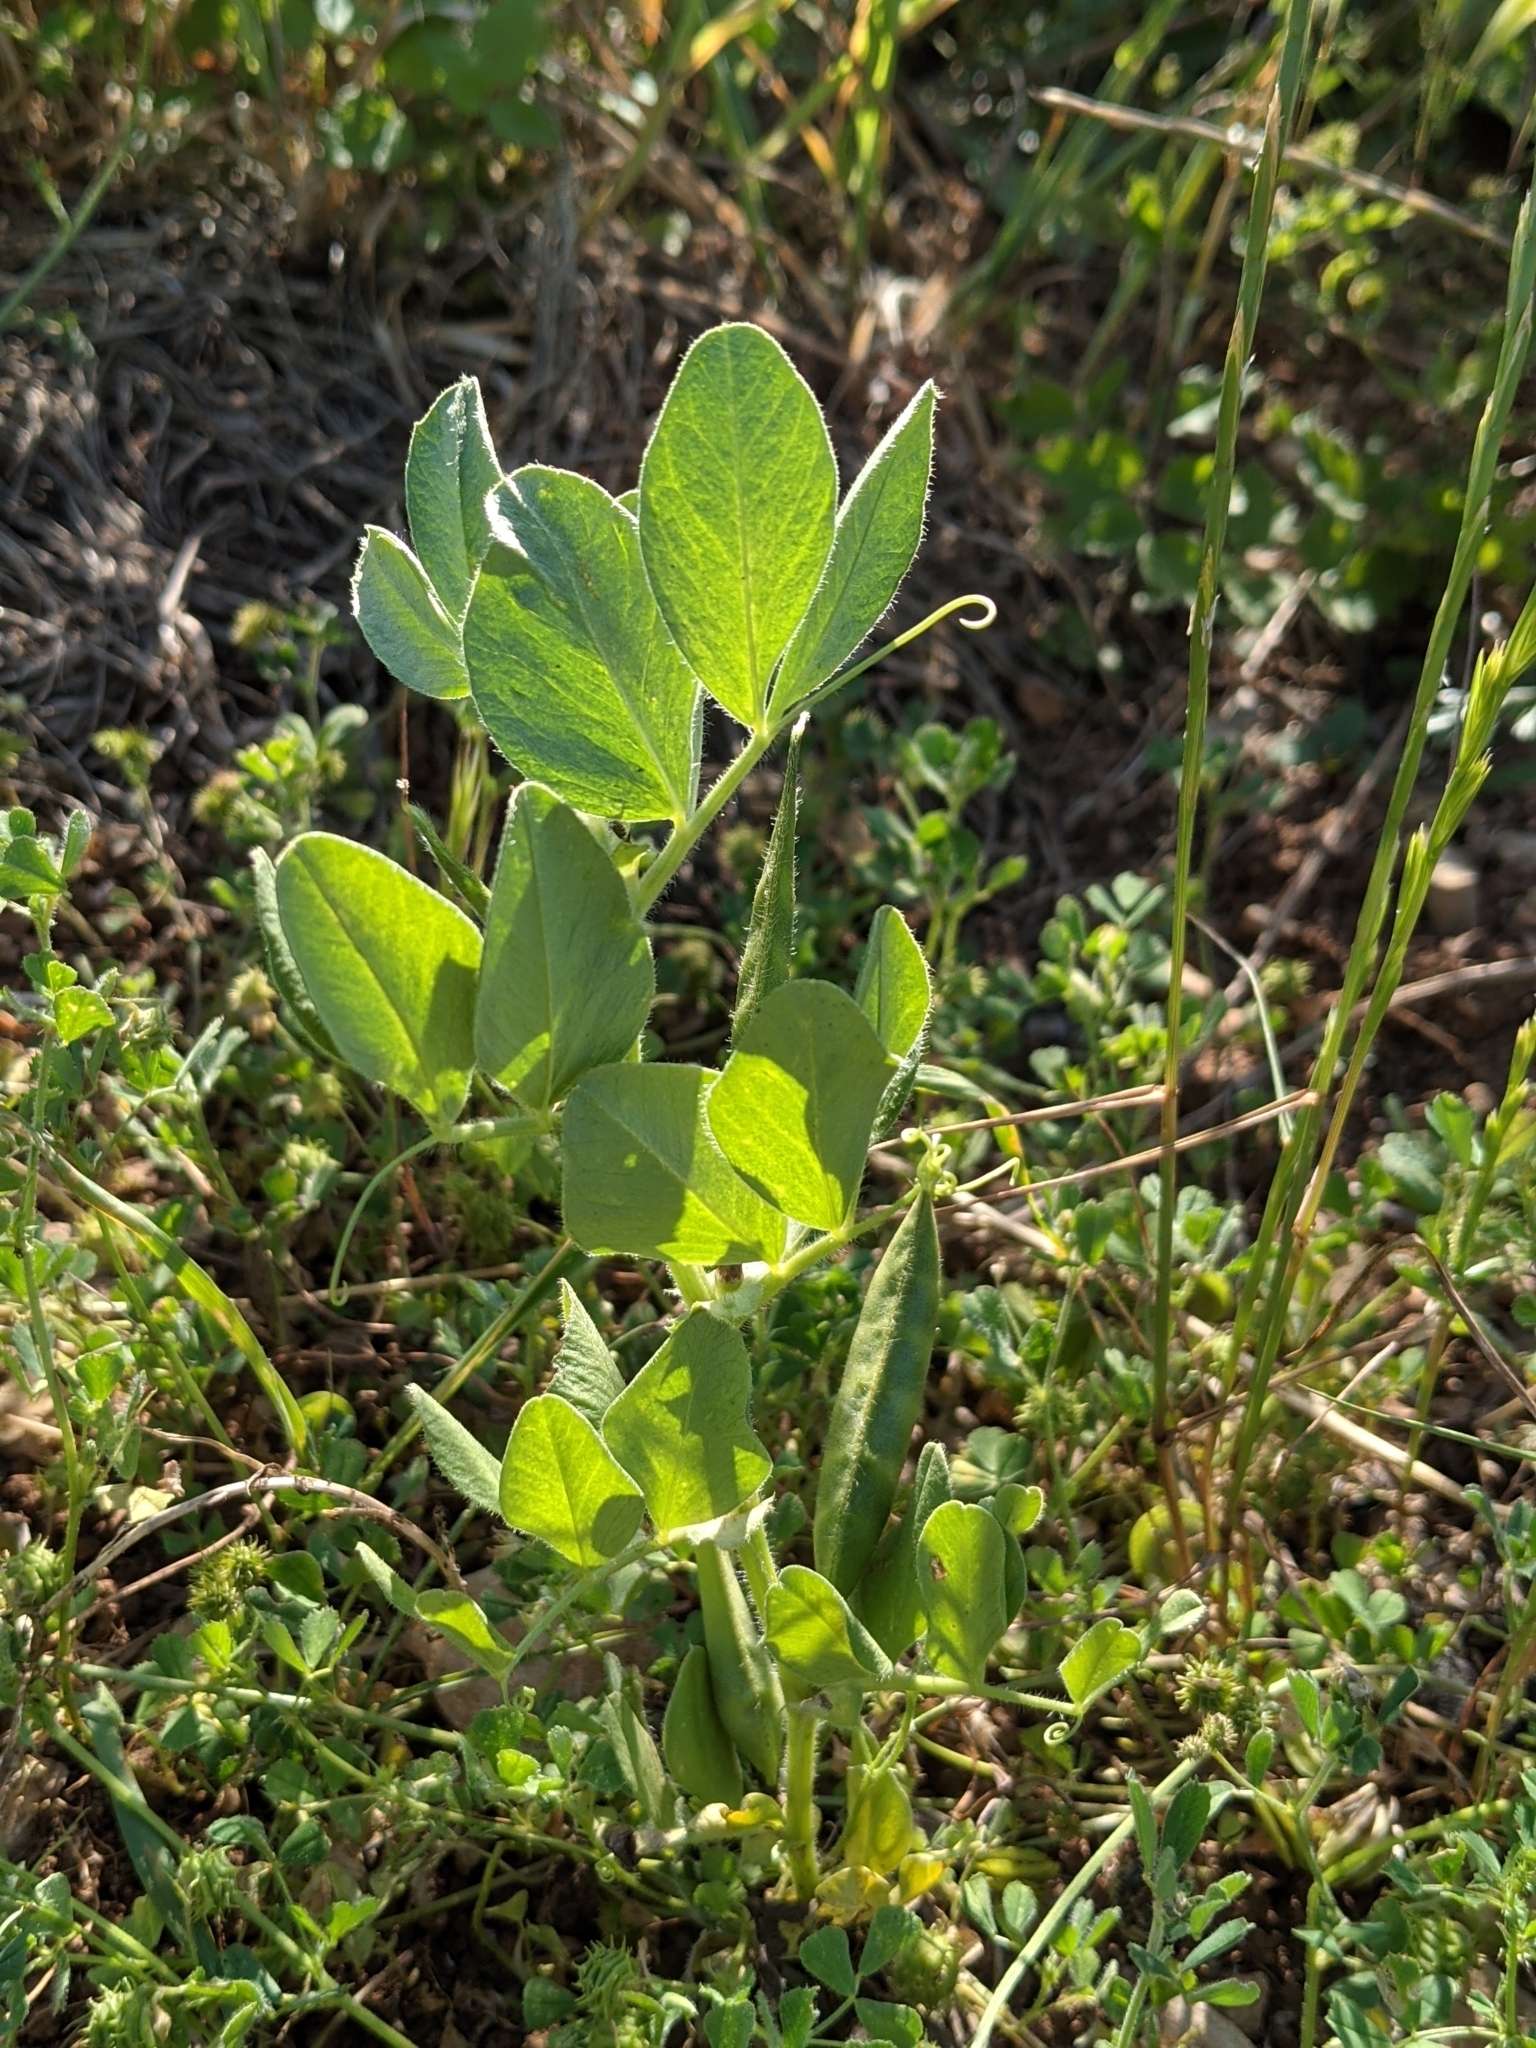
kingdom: Plantae
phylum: Tracheophyta
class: Magnoliopsida
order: Fabales
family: Fabaceae
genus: Vicia
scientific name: Vicia johannis
